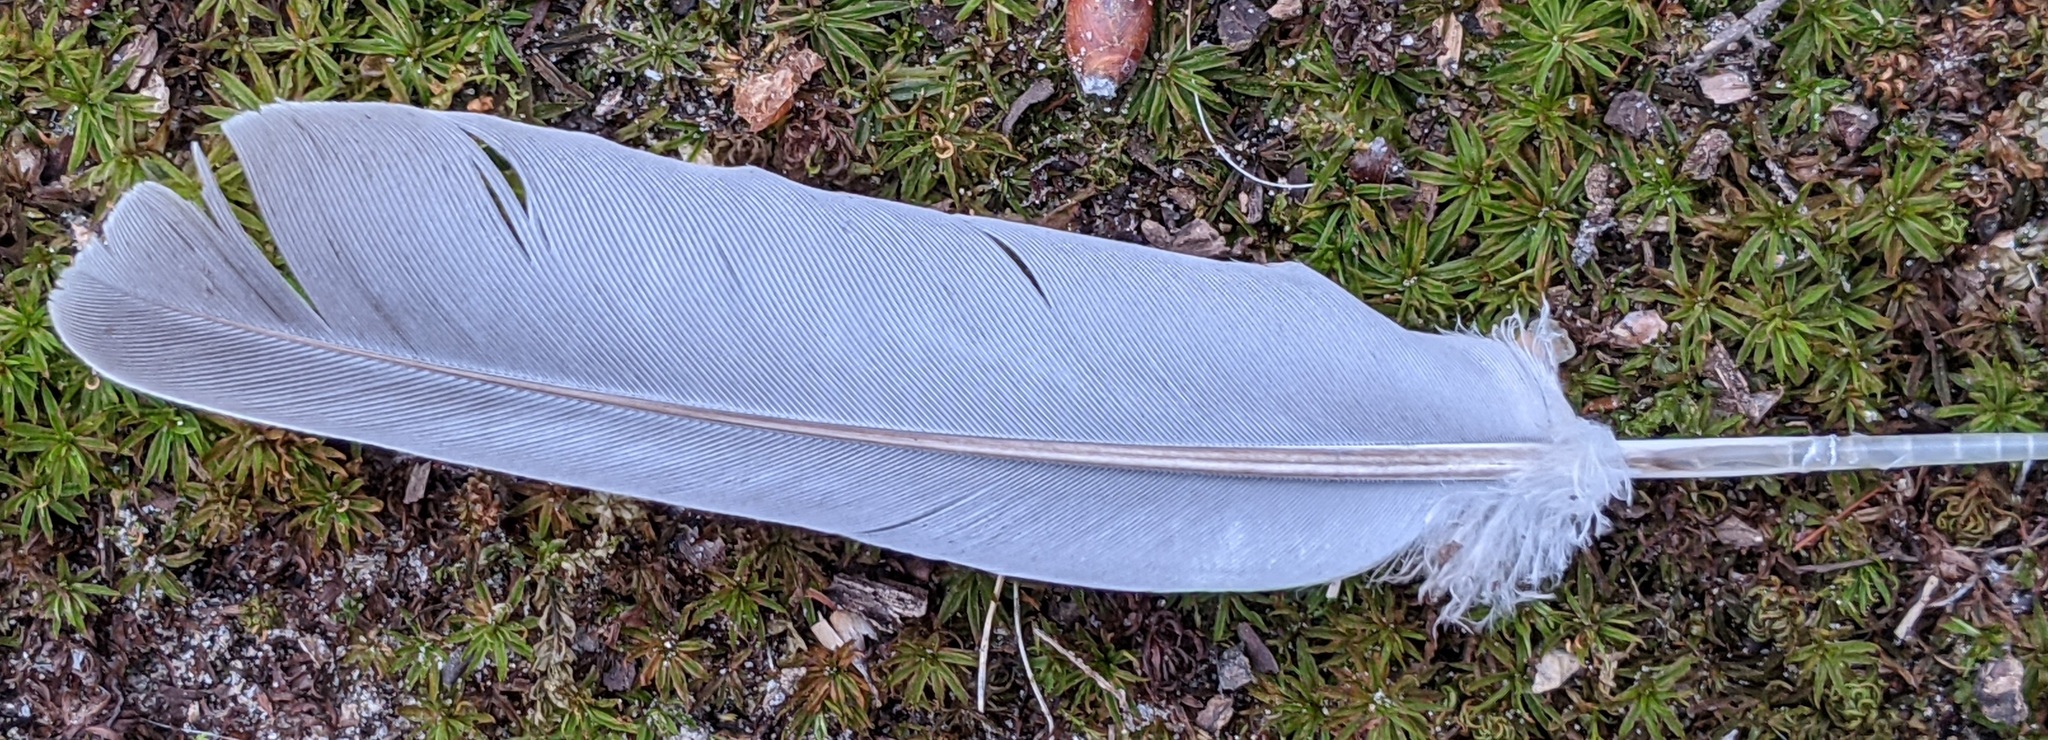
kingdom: Animalia
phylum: Chordata
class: Aves
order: Columbiformes
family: Columbidae
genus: Zenaida
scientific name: Zenaida macroura
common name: Mourning dove
